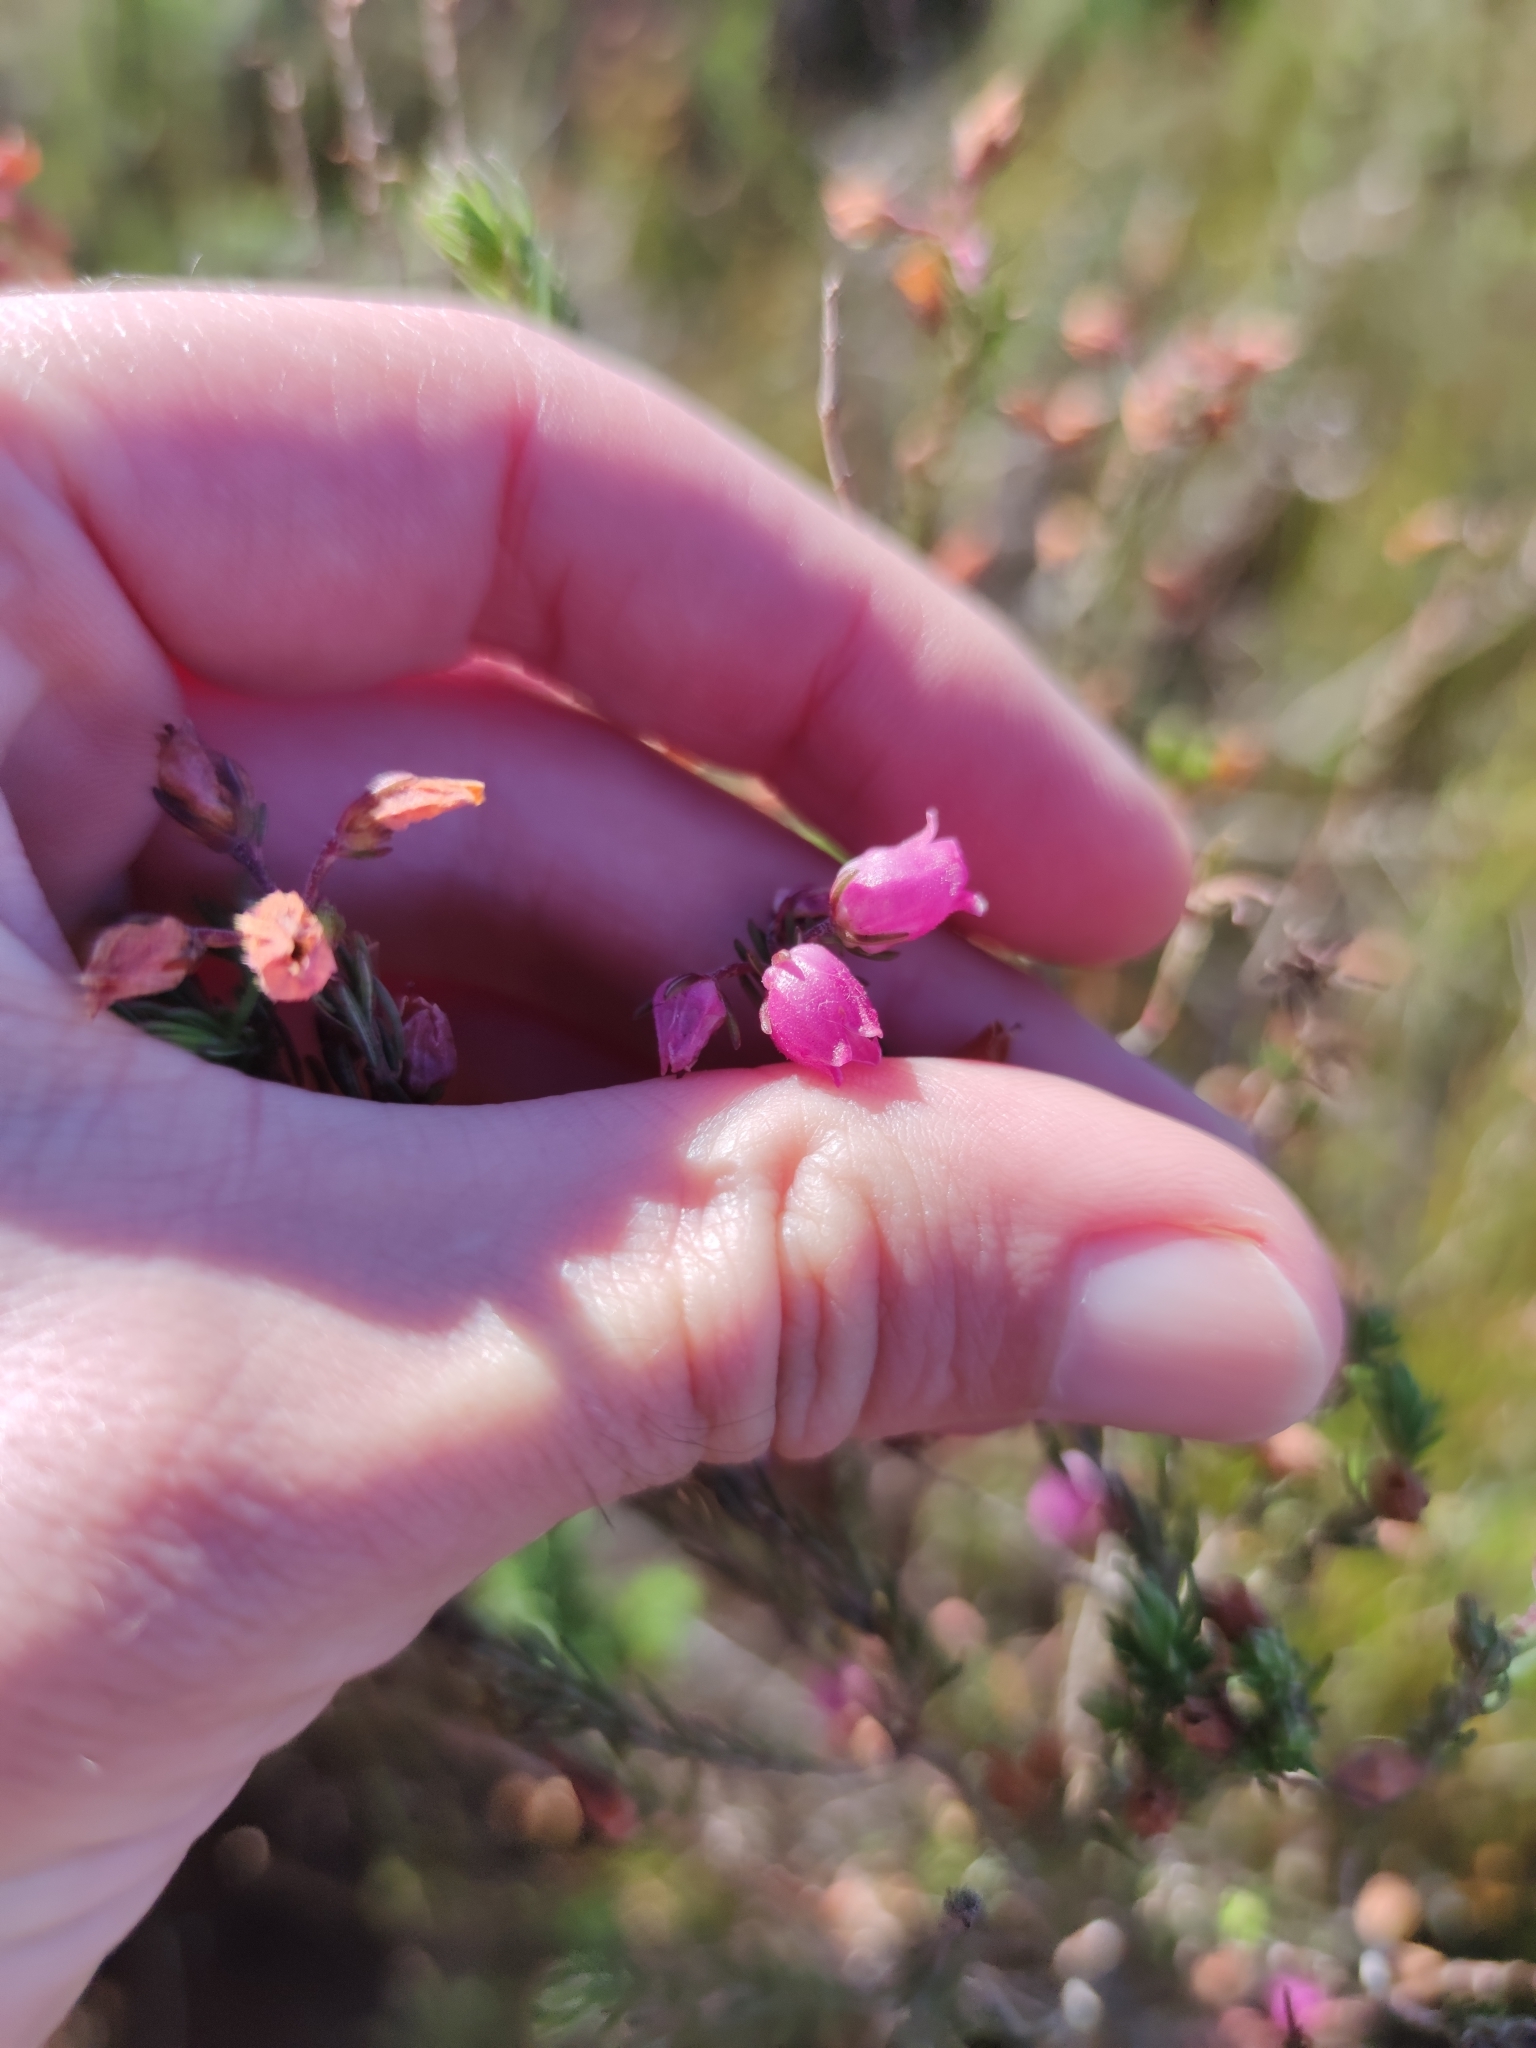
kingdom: Plantae
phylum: Tracheophyta
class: Magnoliopsida
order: Ericales
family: Ericaceae
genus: Erica
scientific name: Erica viscaria
